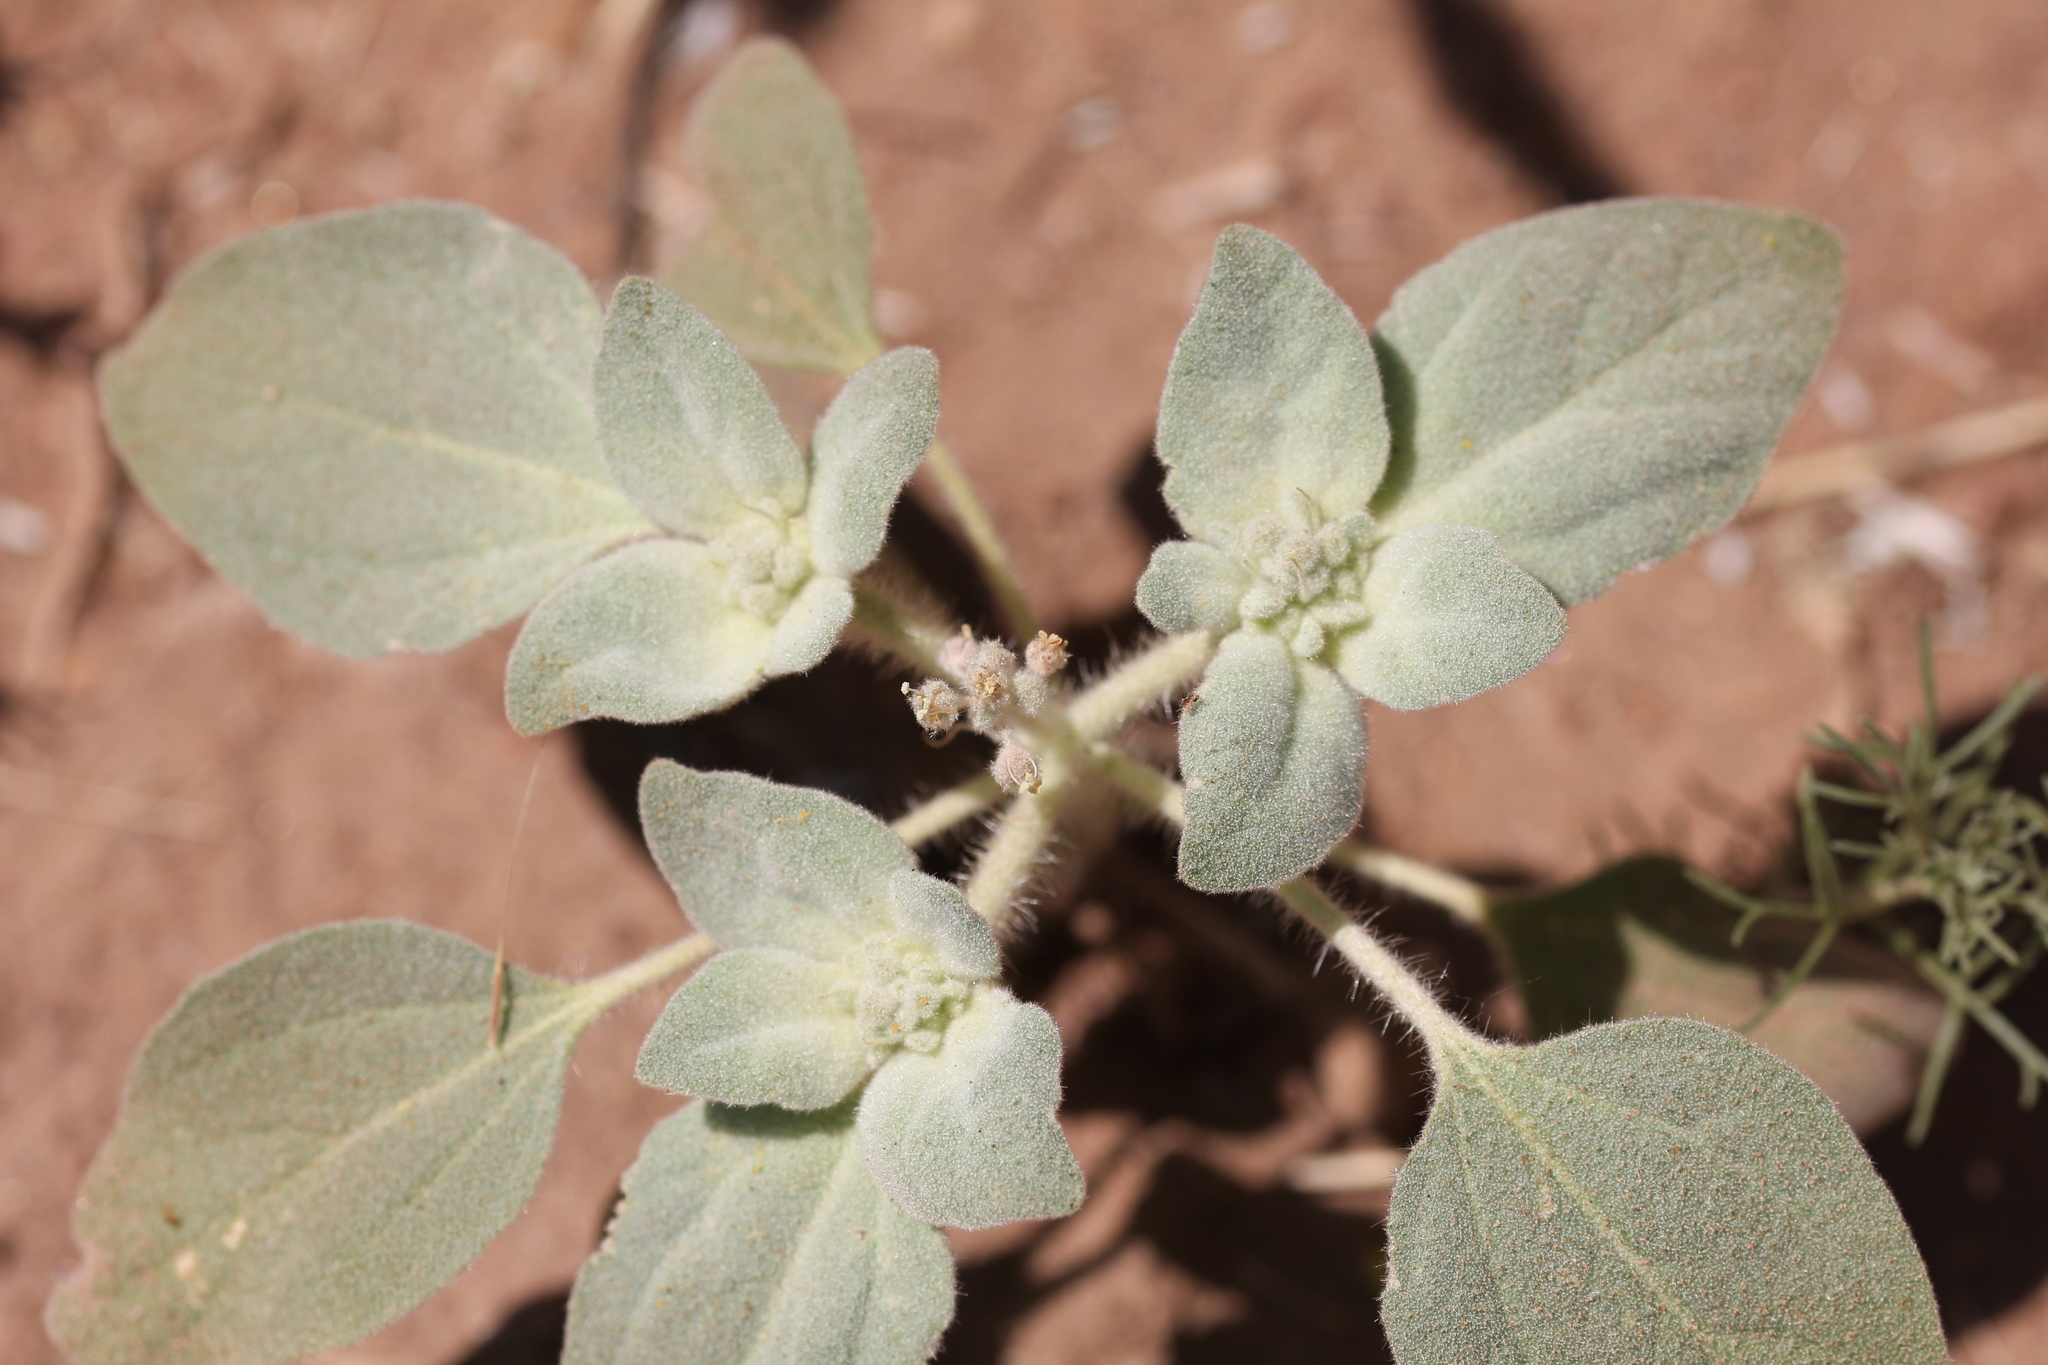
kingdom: Plantae
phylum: Tracheophyta
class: Magnoliopsida
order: Malpighiales
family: Euphorbiaceae
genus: Croton
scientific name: Croton setiger
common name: Dove weed
